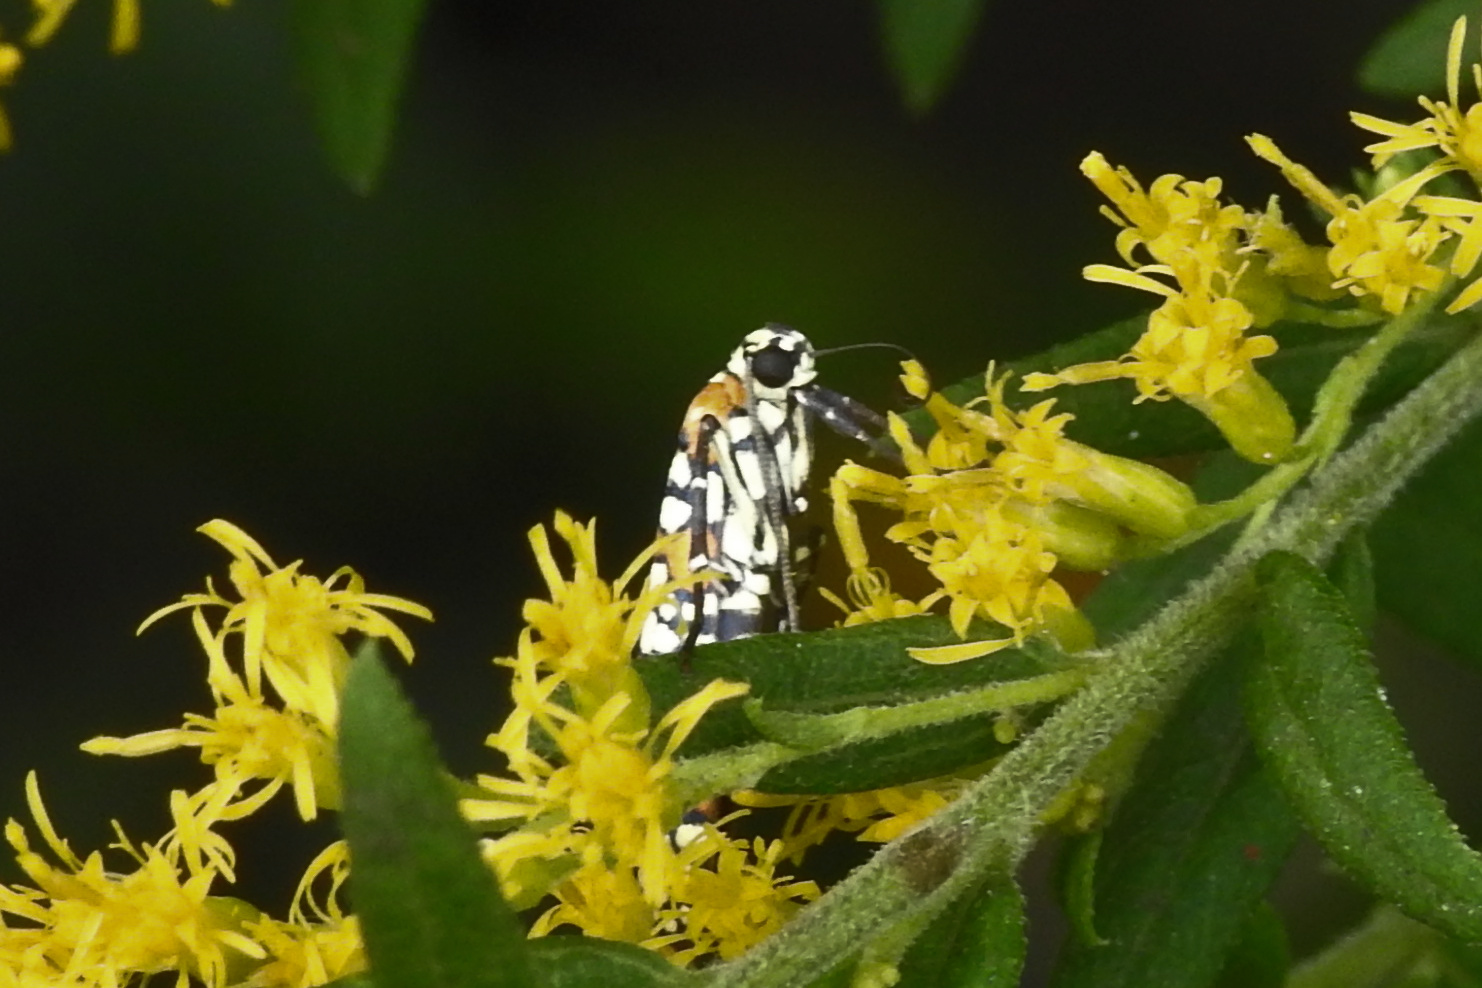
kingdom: Animalia
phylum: Arthropoda
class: Insecta
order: Lepidoptera
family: Attevidae
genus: Atteva
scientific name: Atteva punctella
